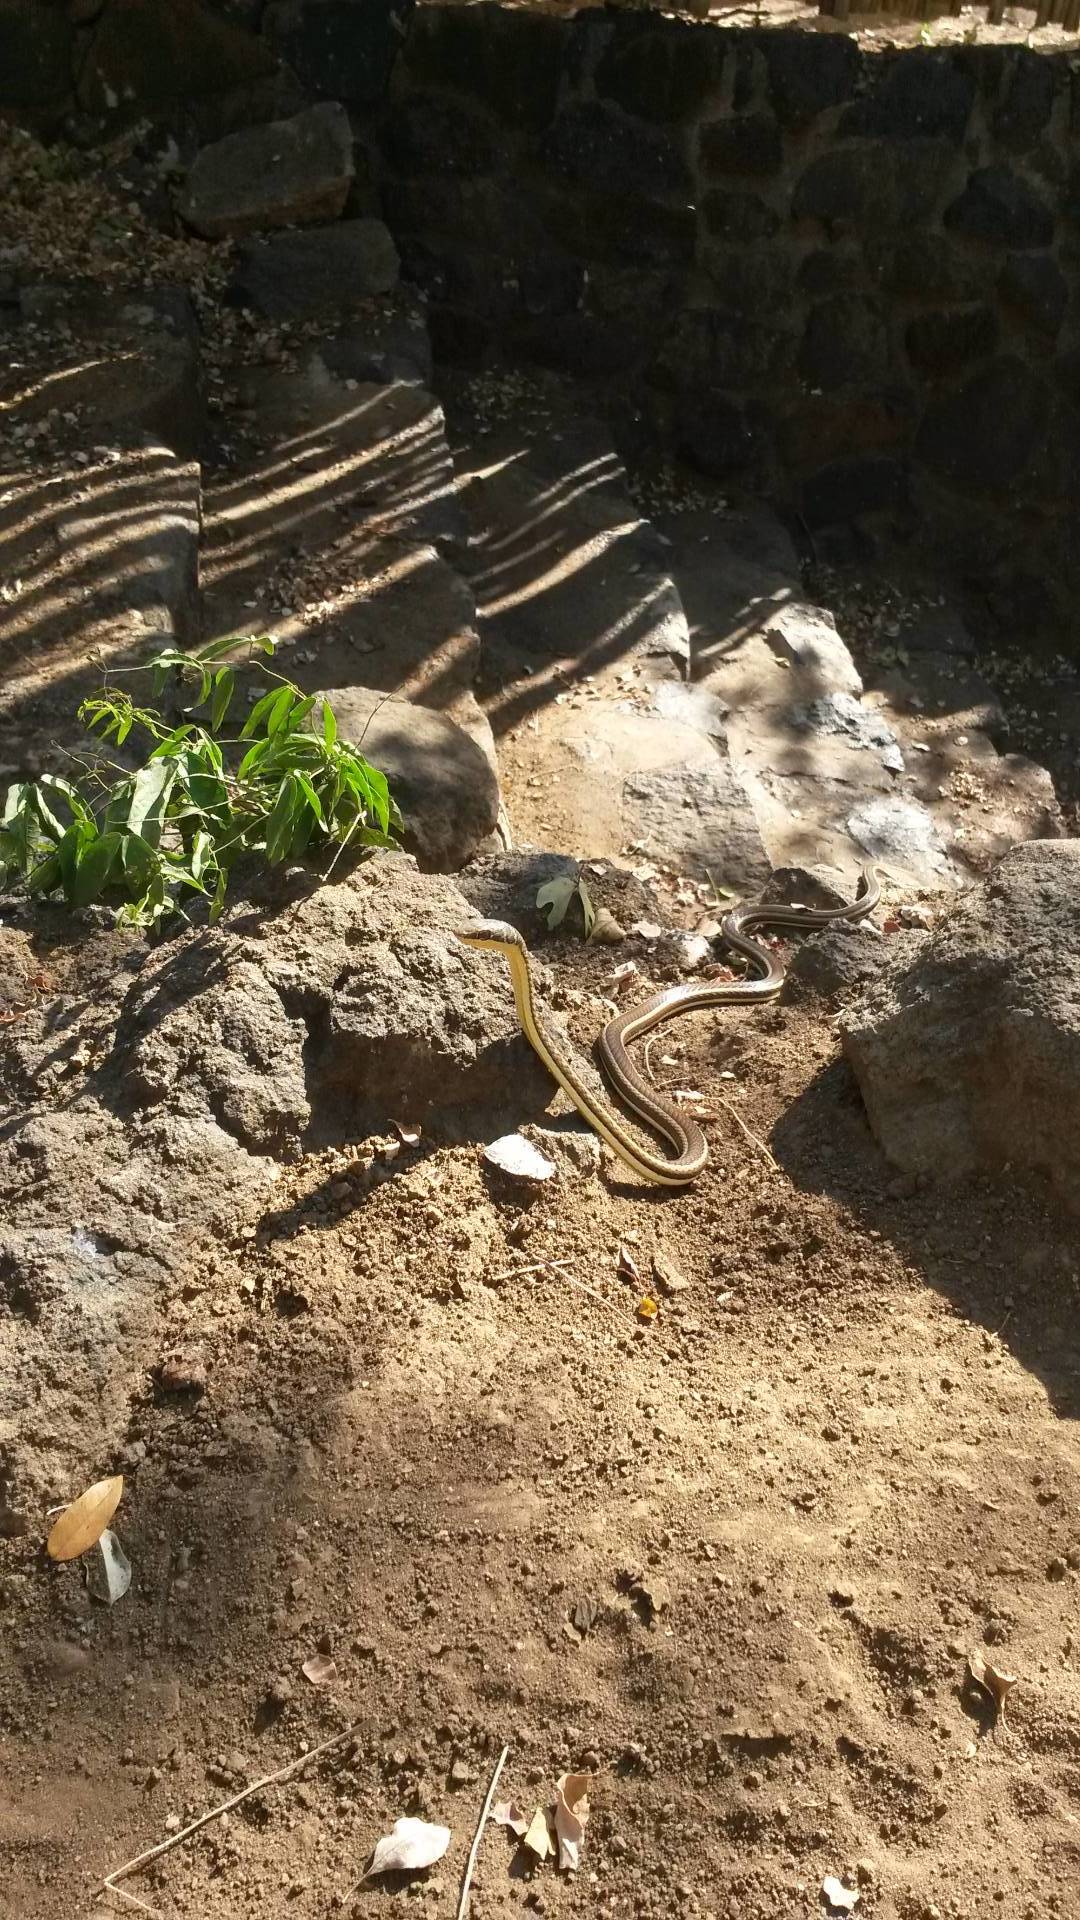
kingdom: Animalia
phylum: Chordata
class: Squamata
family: Psammophiidae
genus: Psammophis
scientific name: Psammophis subtaeniatus
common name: Stripe-bellied sand snake
